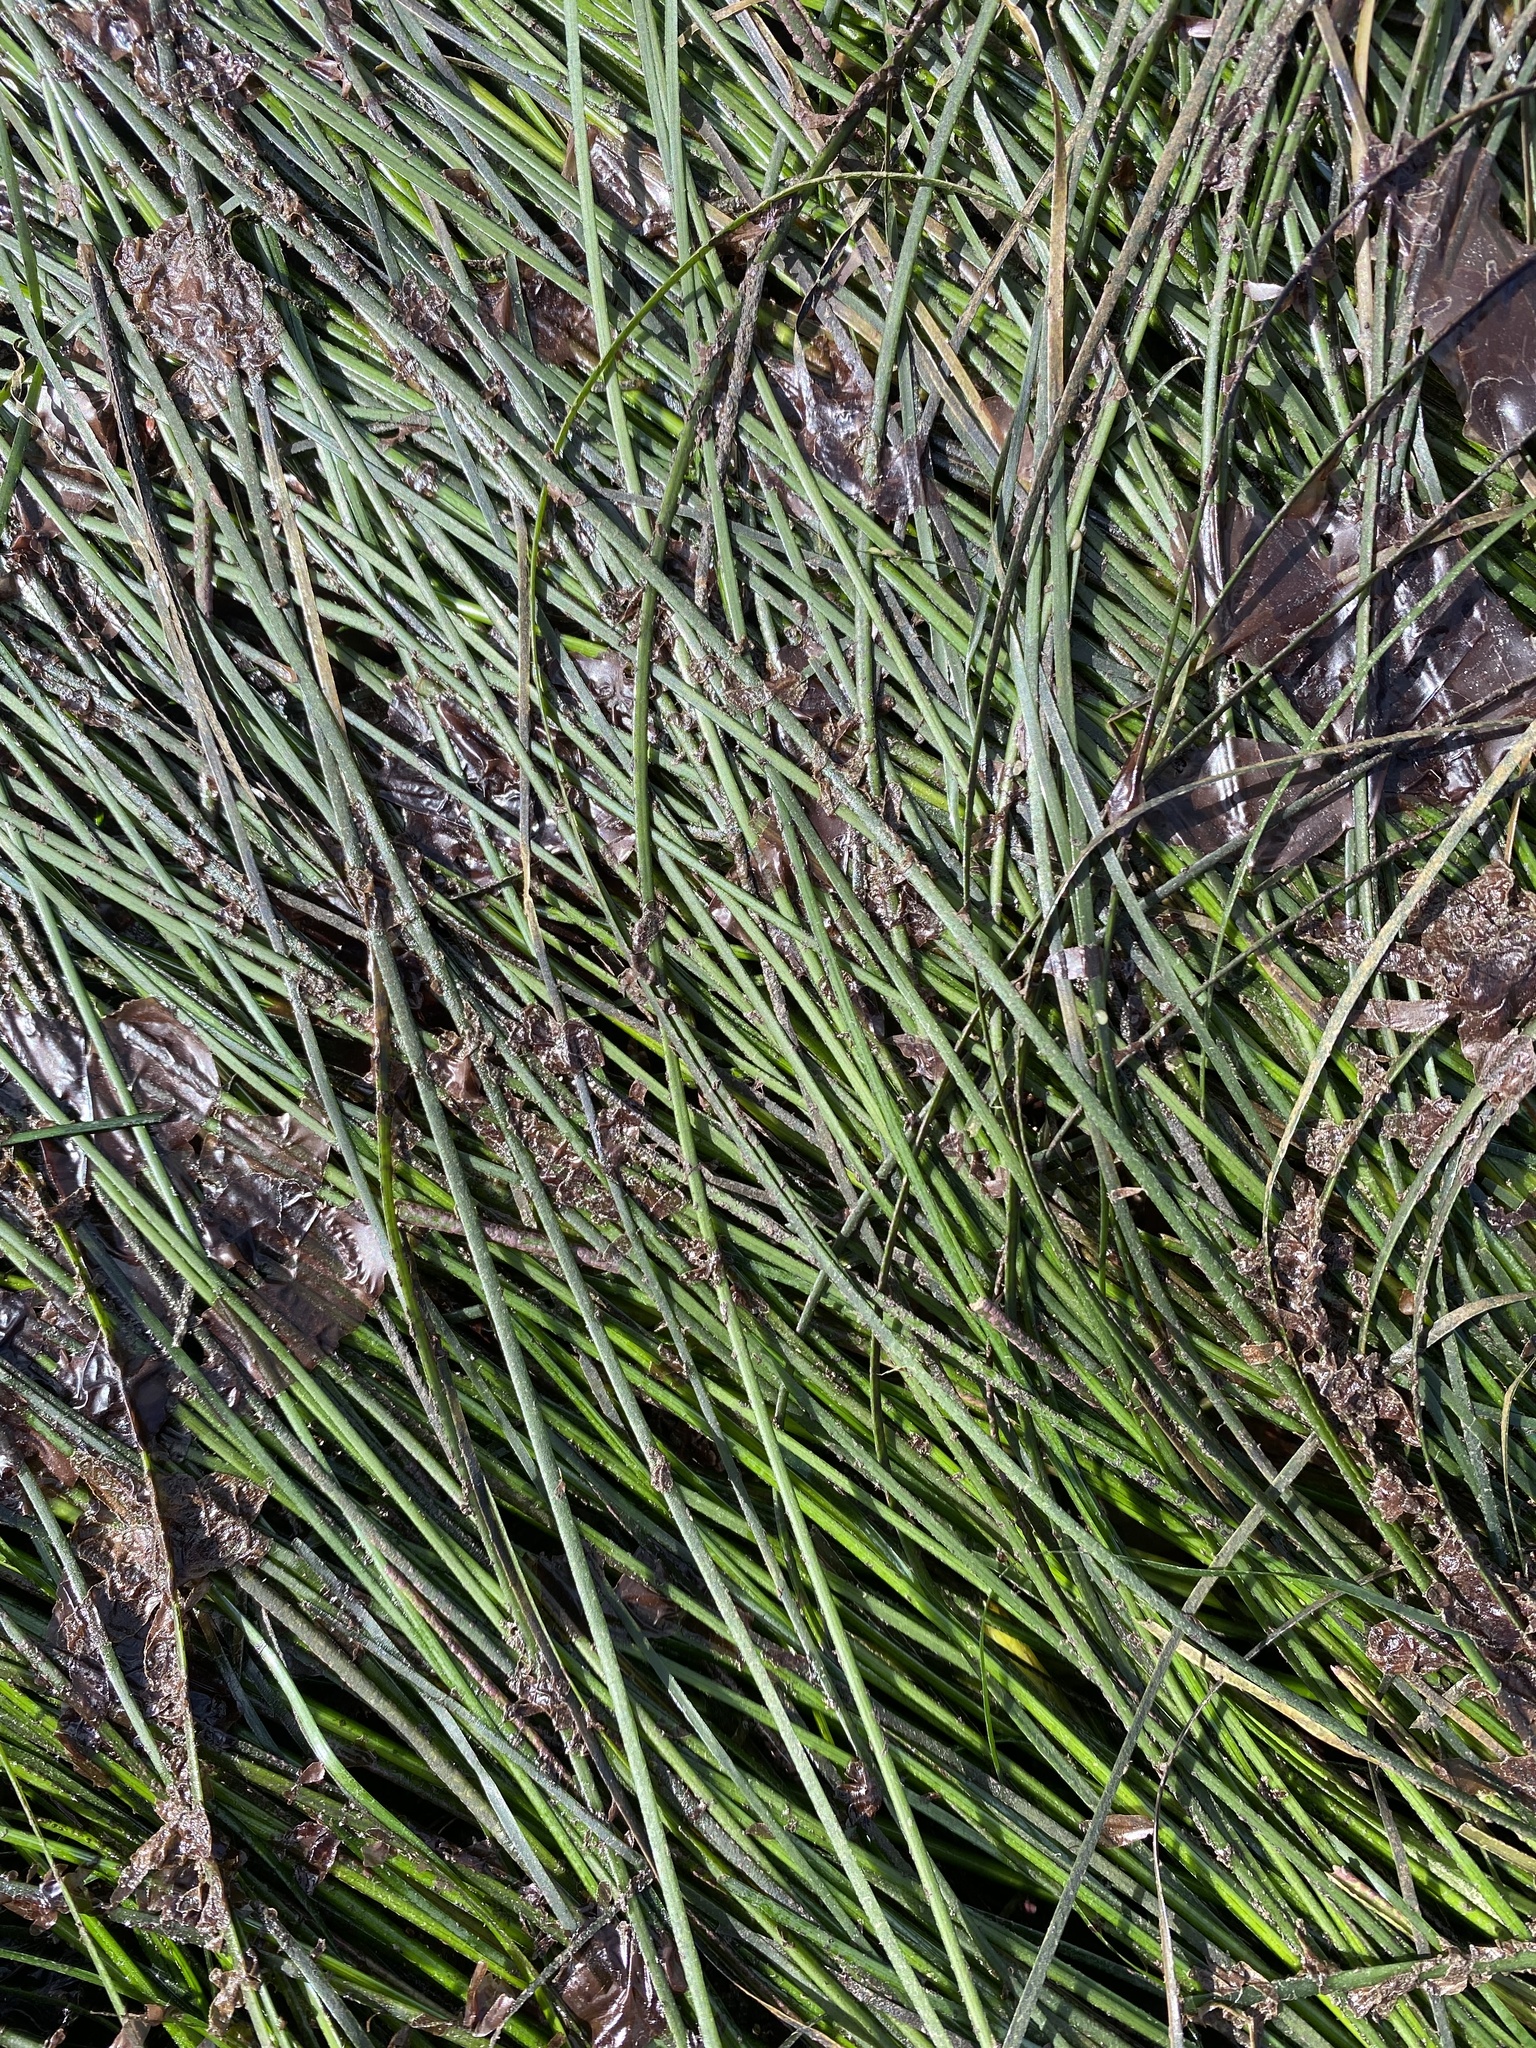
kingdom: Plantae
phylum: Tracheophyta
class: Liliopsida
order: Alismatales
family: Zosteraceae
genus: Phyllospadix
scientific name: Phyllospadix torreyi
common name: Surfgrass
